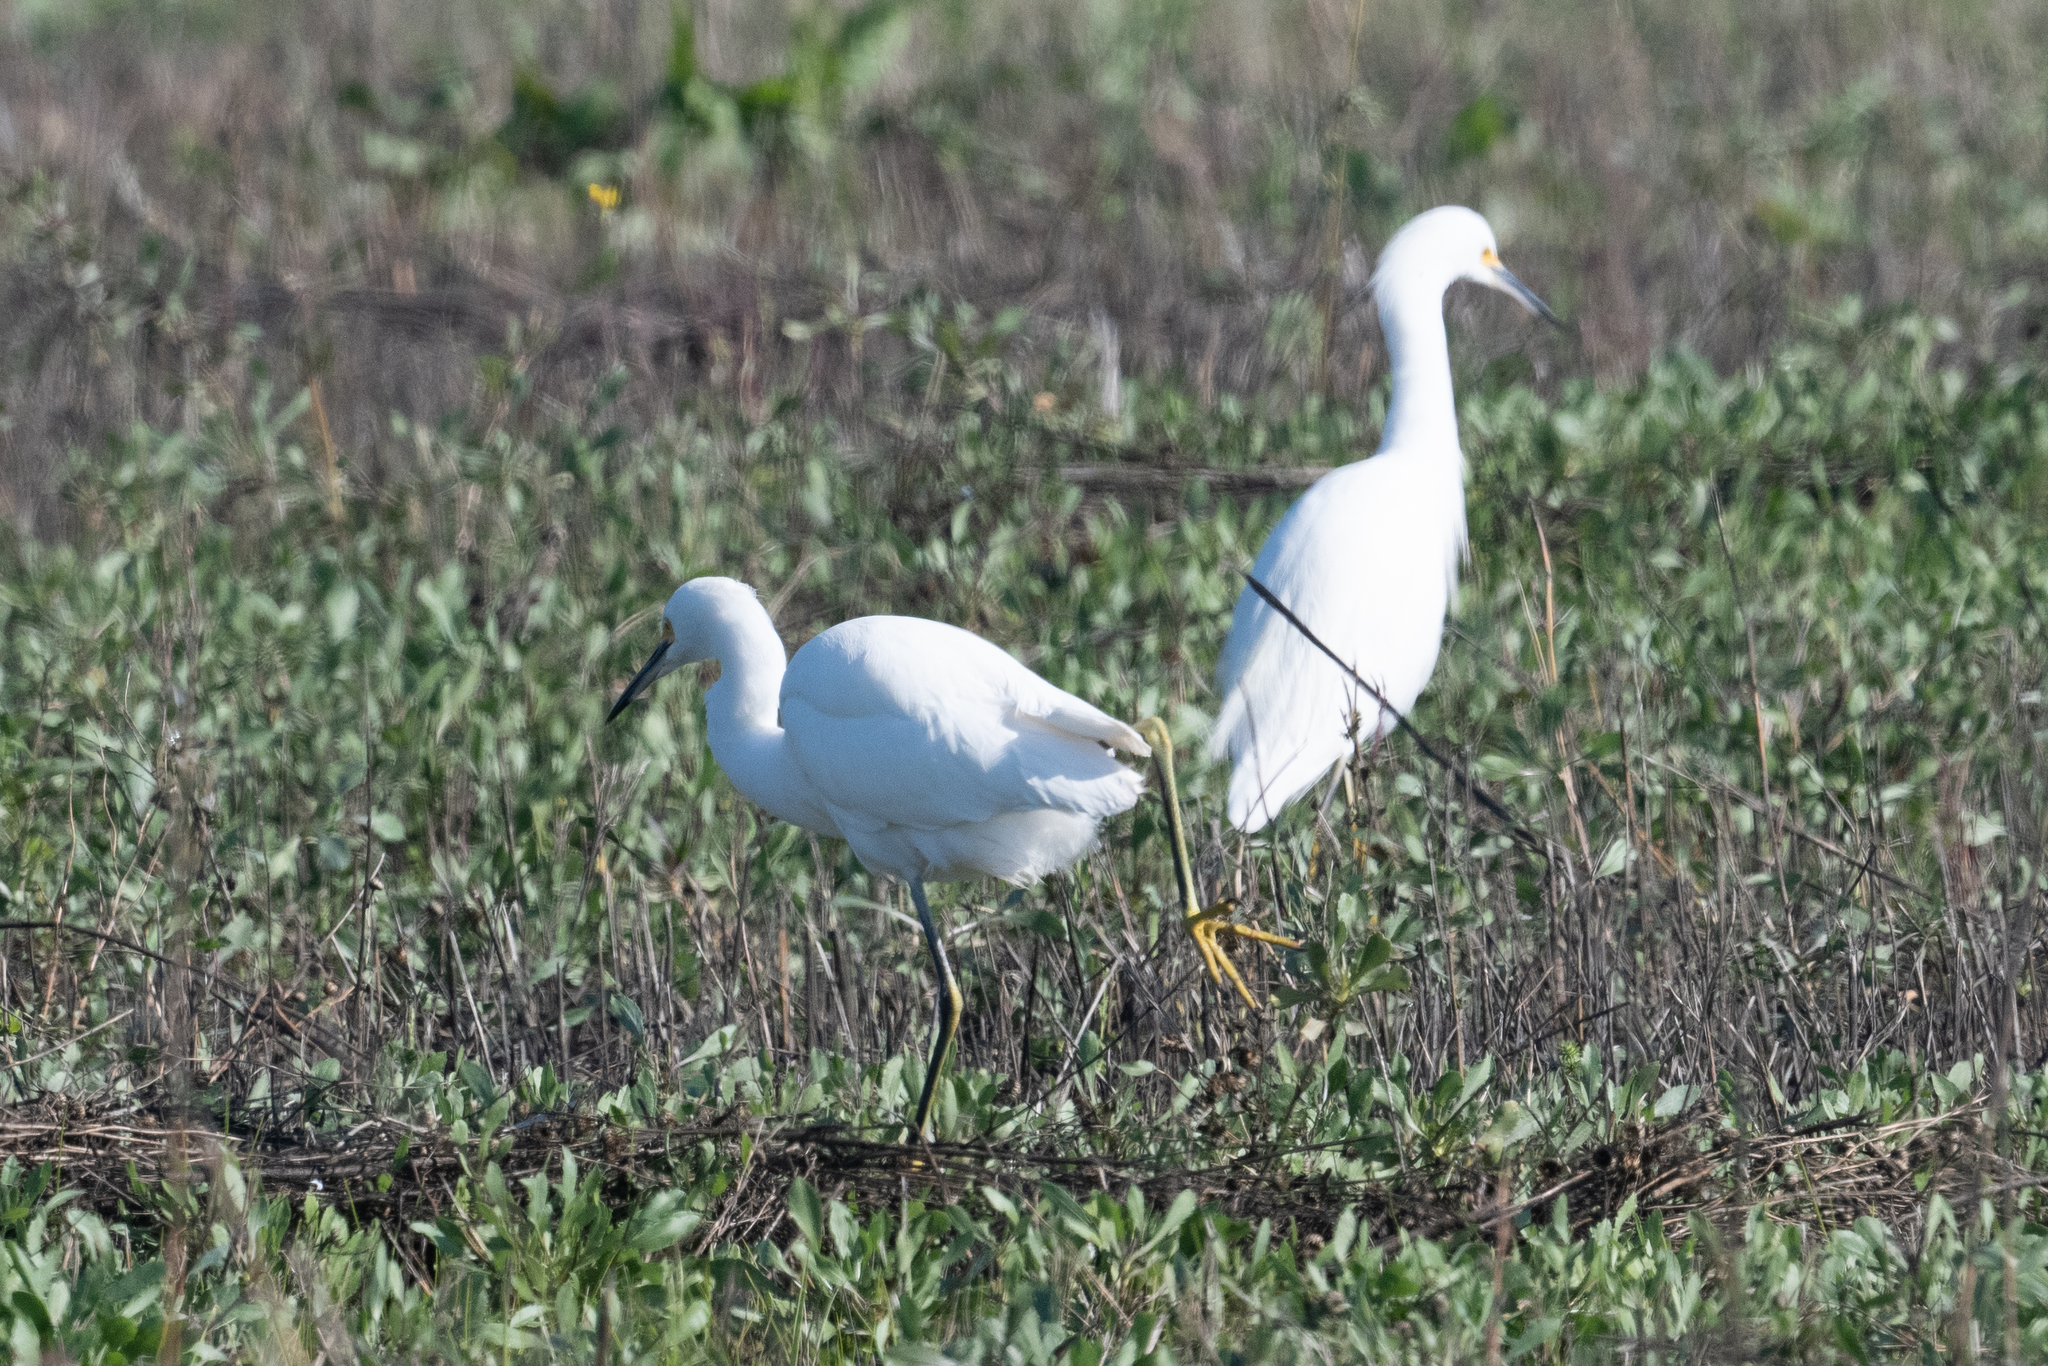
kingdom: Animalia
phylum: Chordata
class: Aves
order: Pelecaniformes
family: Ardeidae
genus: Egretta
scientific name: Egretta thula
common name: Snowy egret
